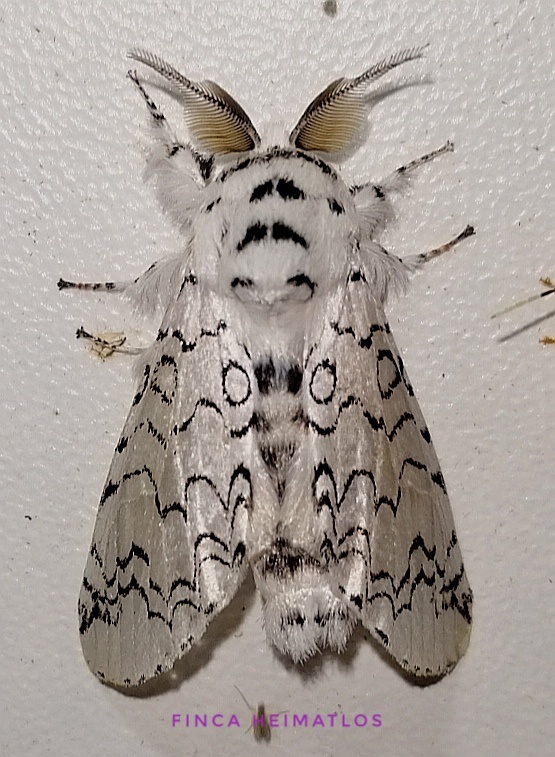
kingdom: Animalia
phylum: Arthropoda
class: Insecta
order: Lepidoptera
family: Notodontidae
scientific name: Notodontidae
